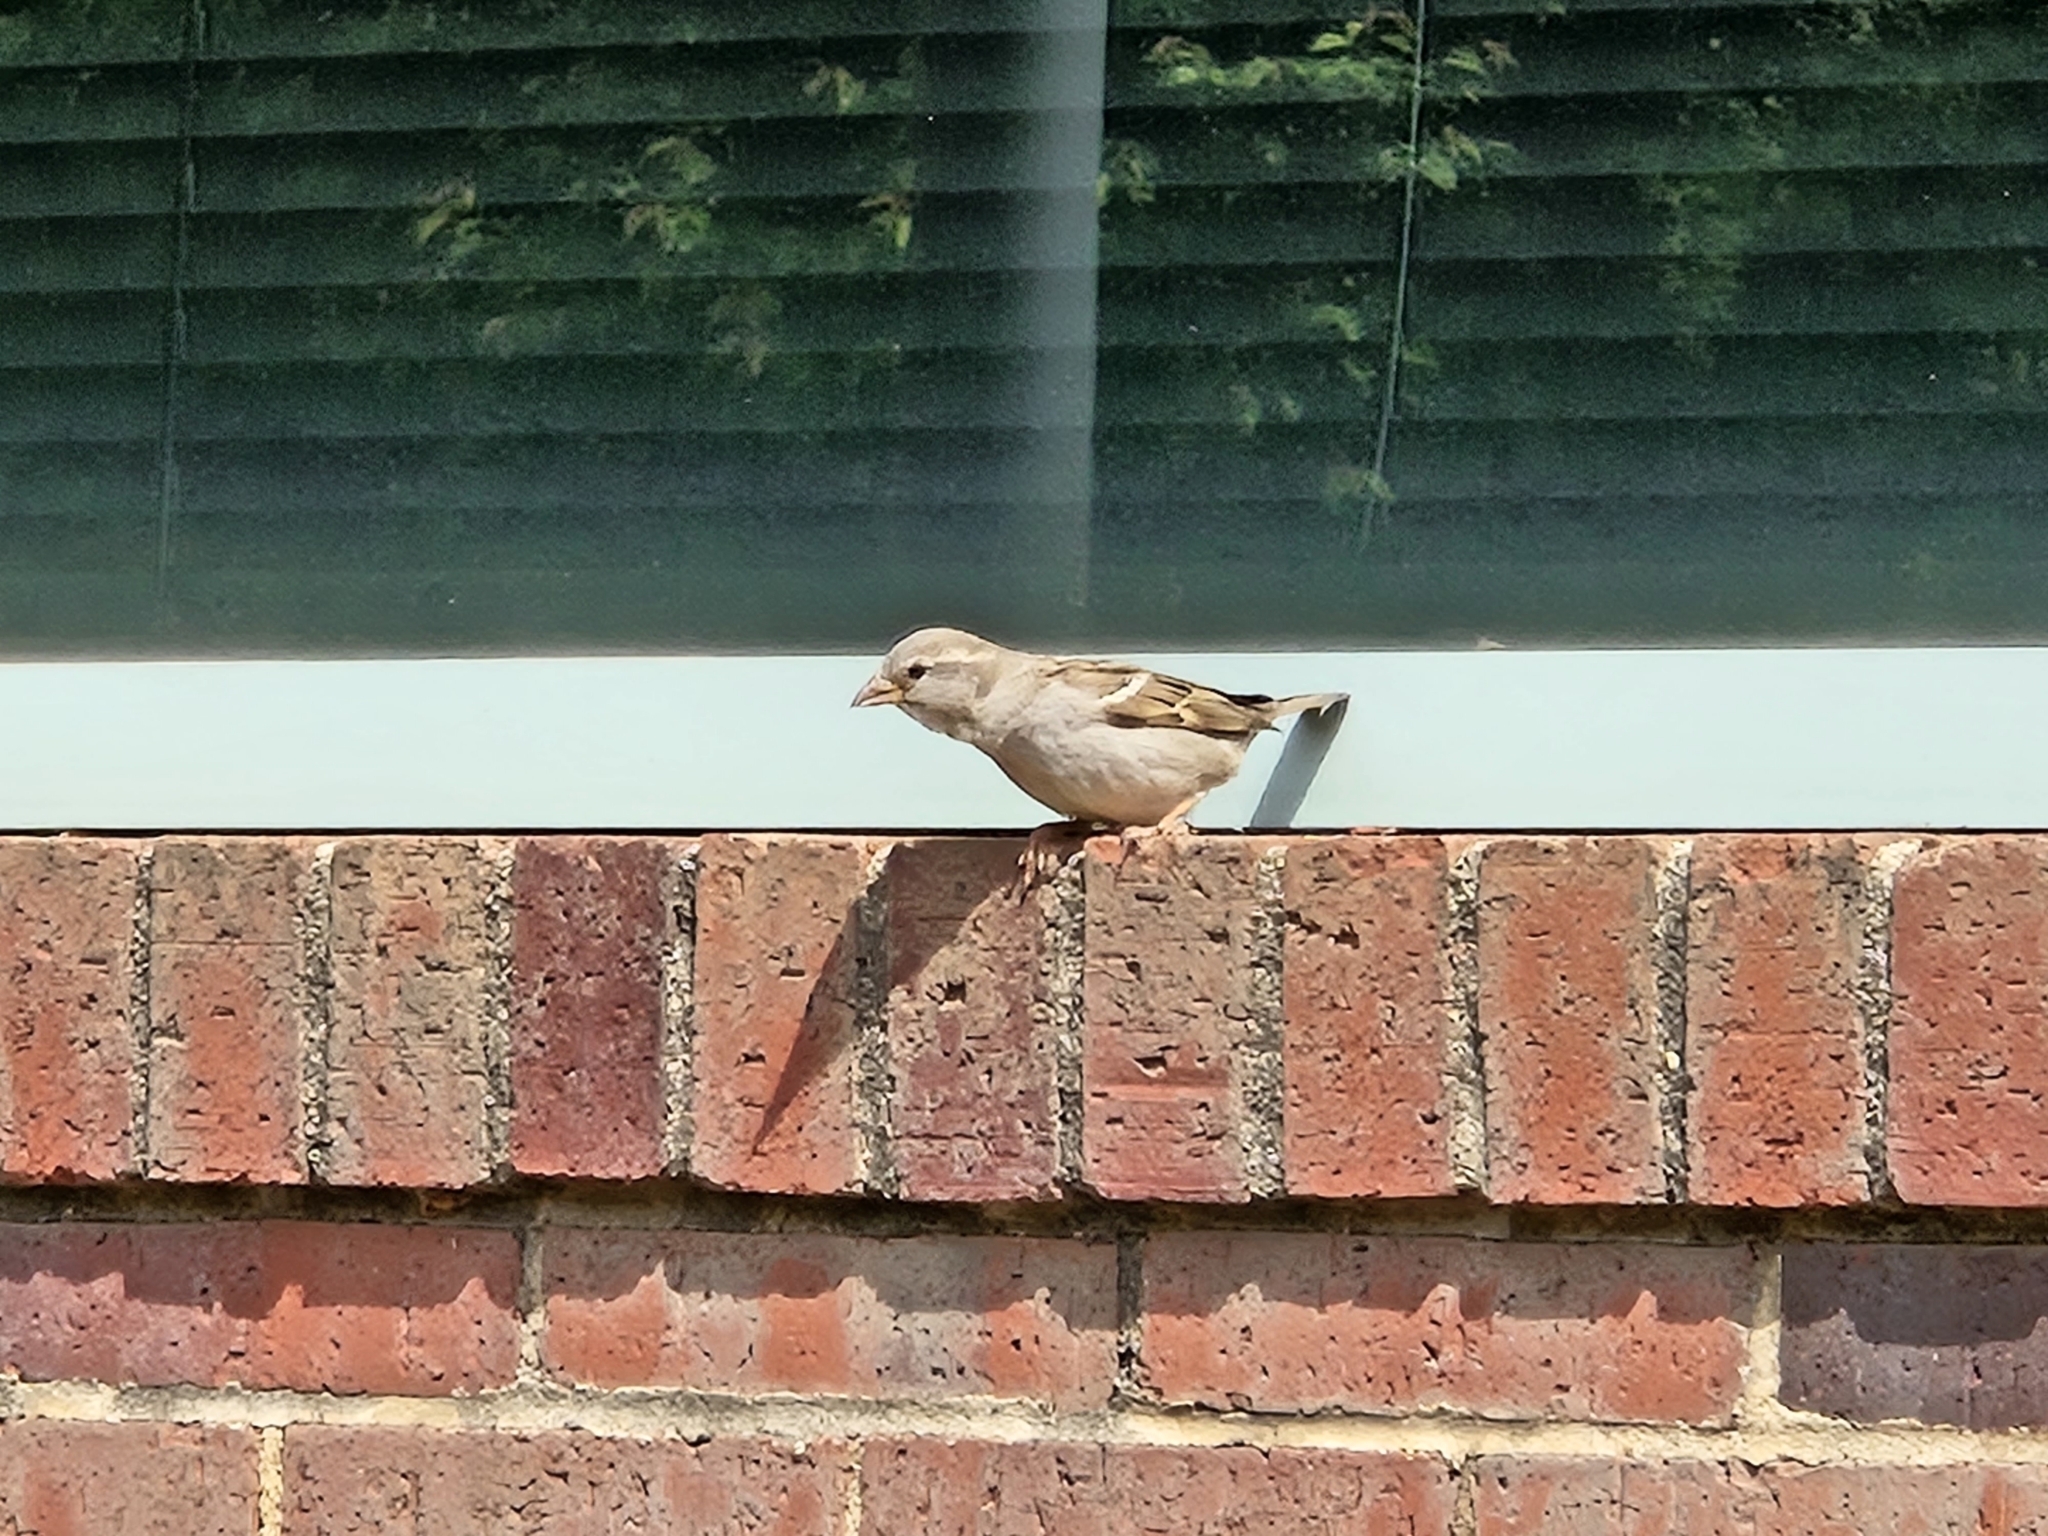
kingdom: Animalia
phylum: Chordata
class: Aves
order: Passeriformes
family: Passeridae
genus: Passer
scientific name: Passer domesticus
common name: House sparrow
